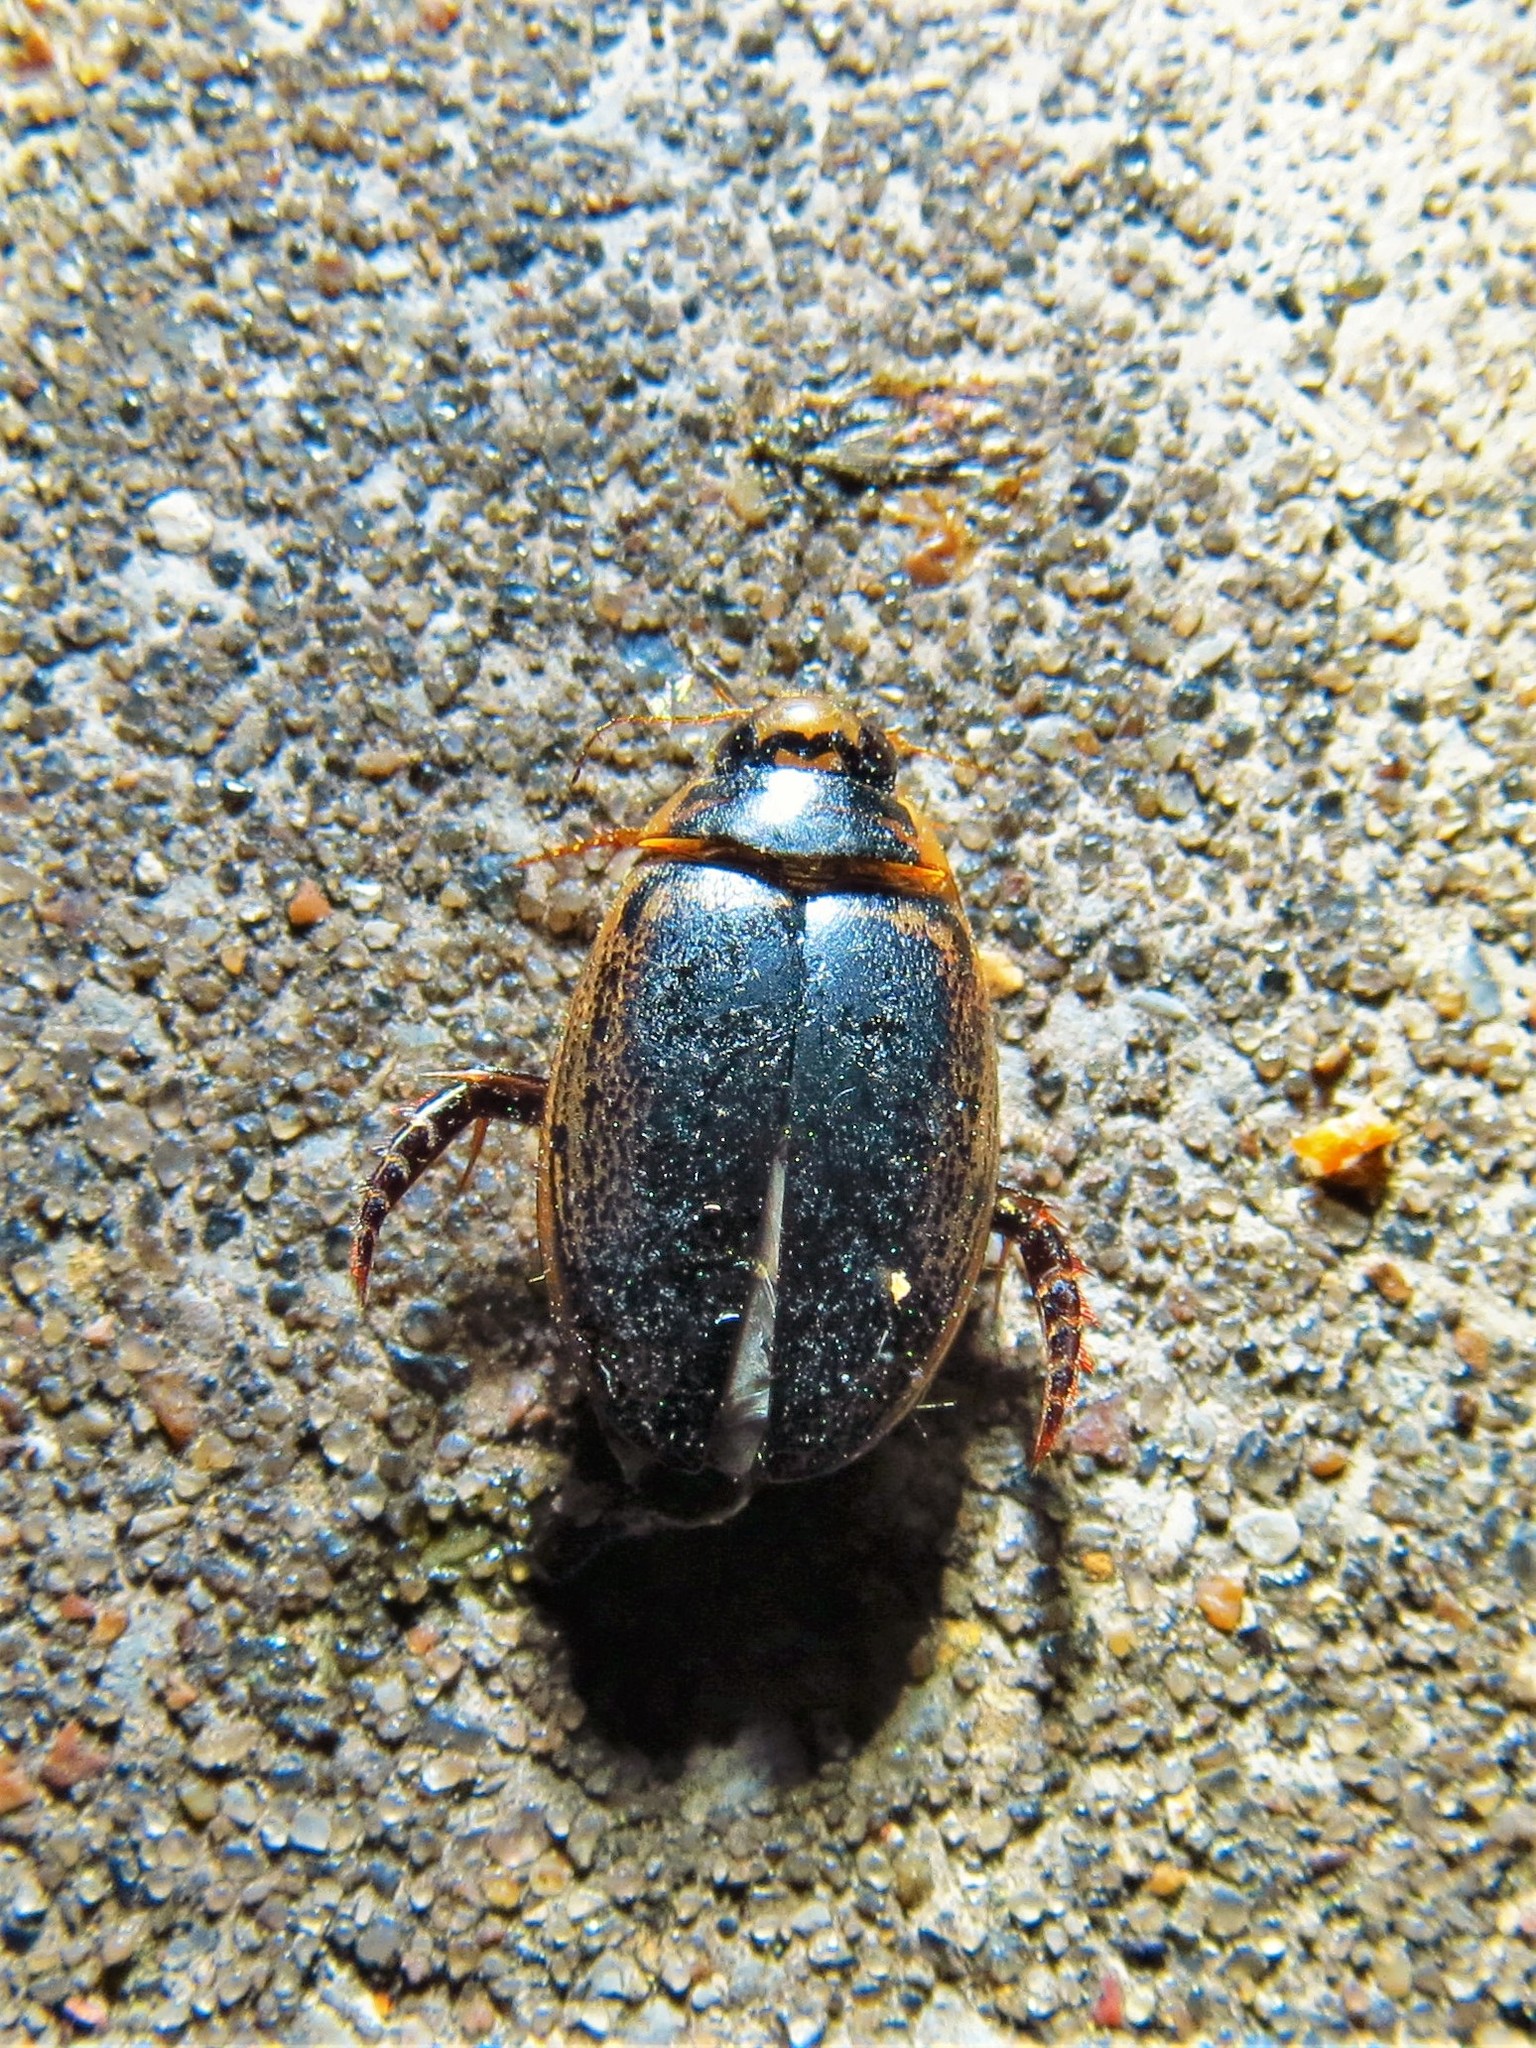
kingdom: Animalia
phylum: Arthropoda
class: Insecta
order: Coleoptera
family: Dytiscidae
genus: Thermonectus
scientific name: Thermonectus basillaris
